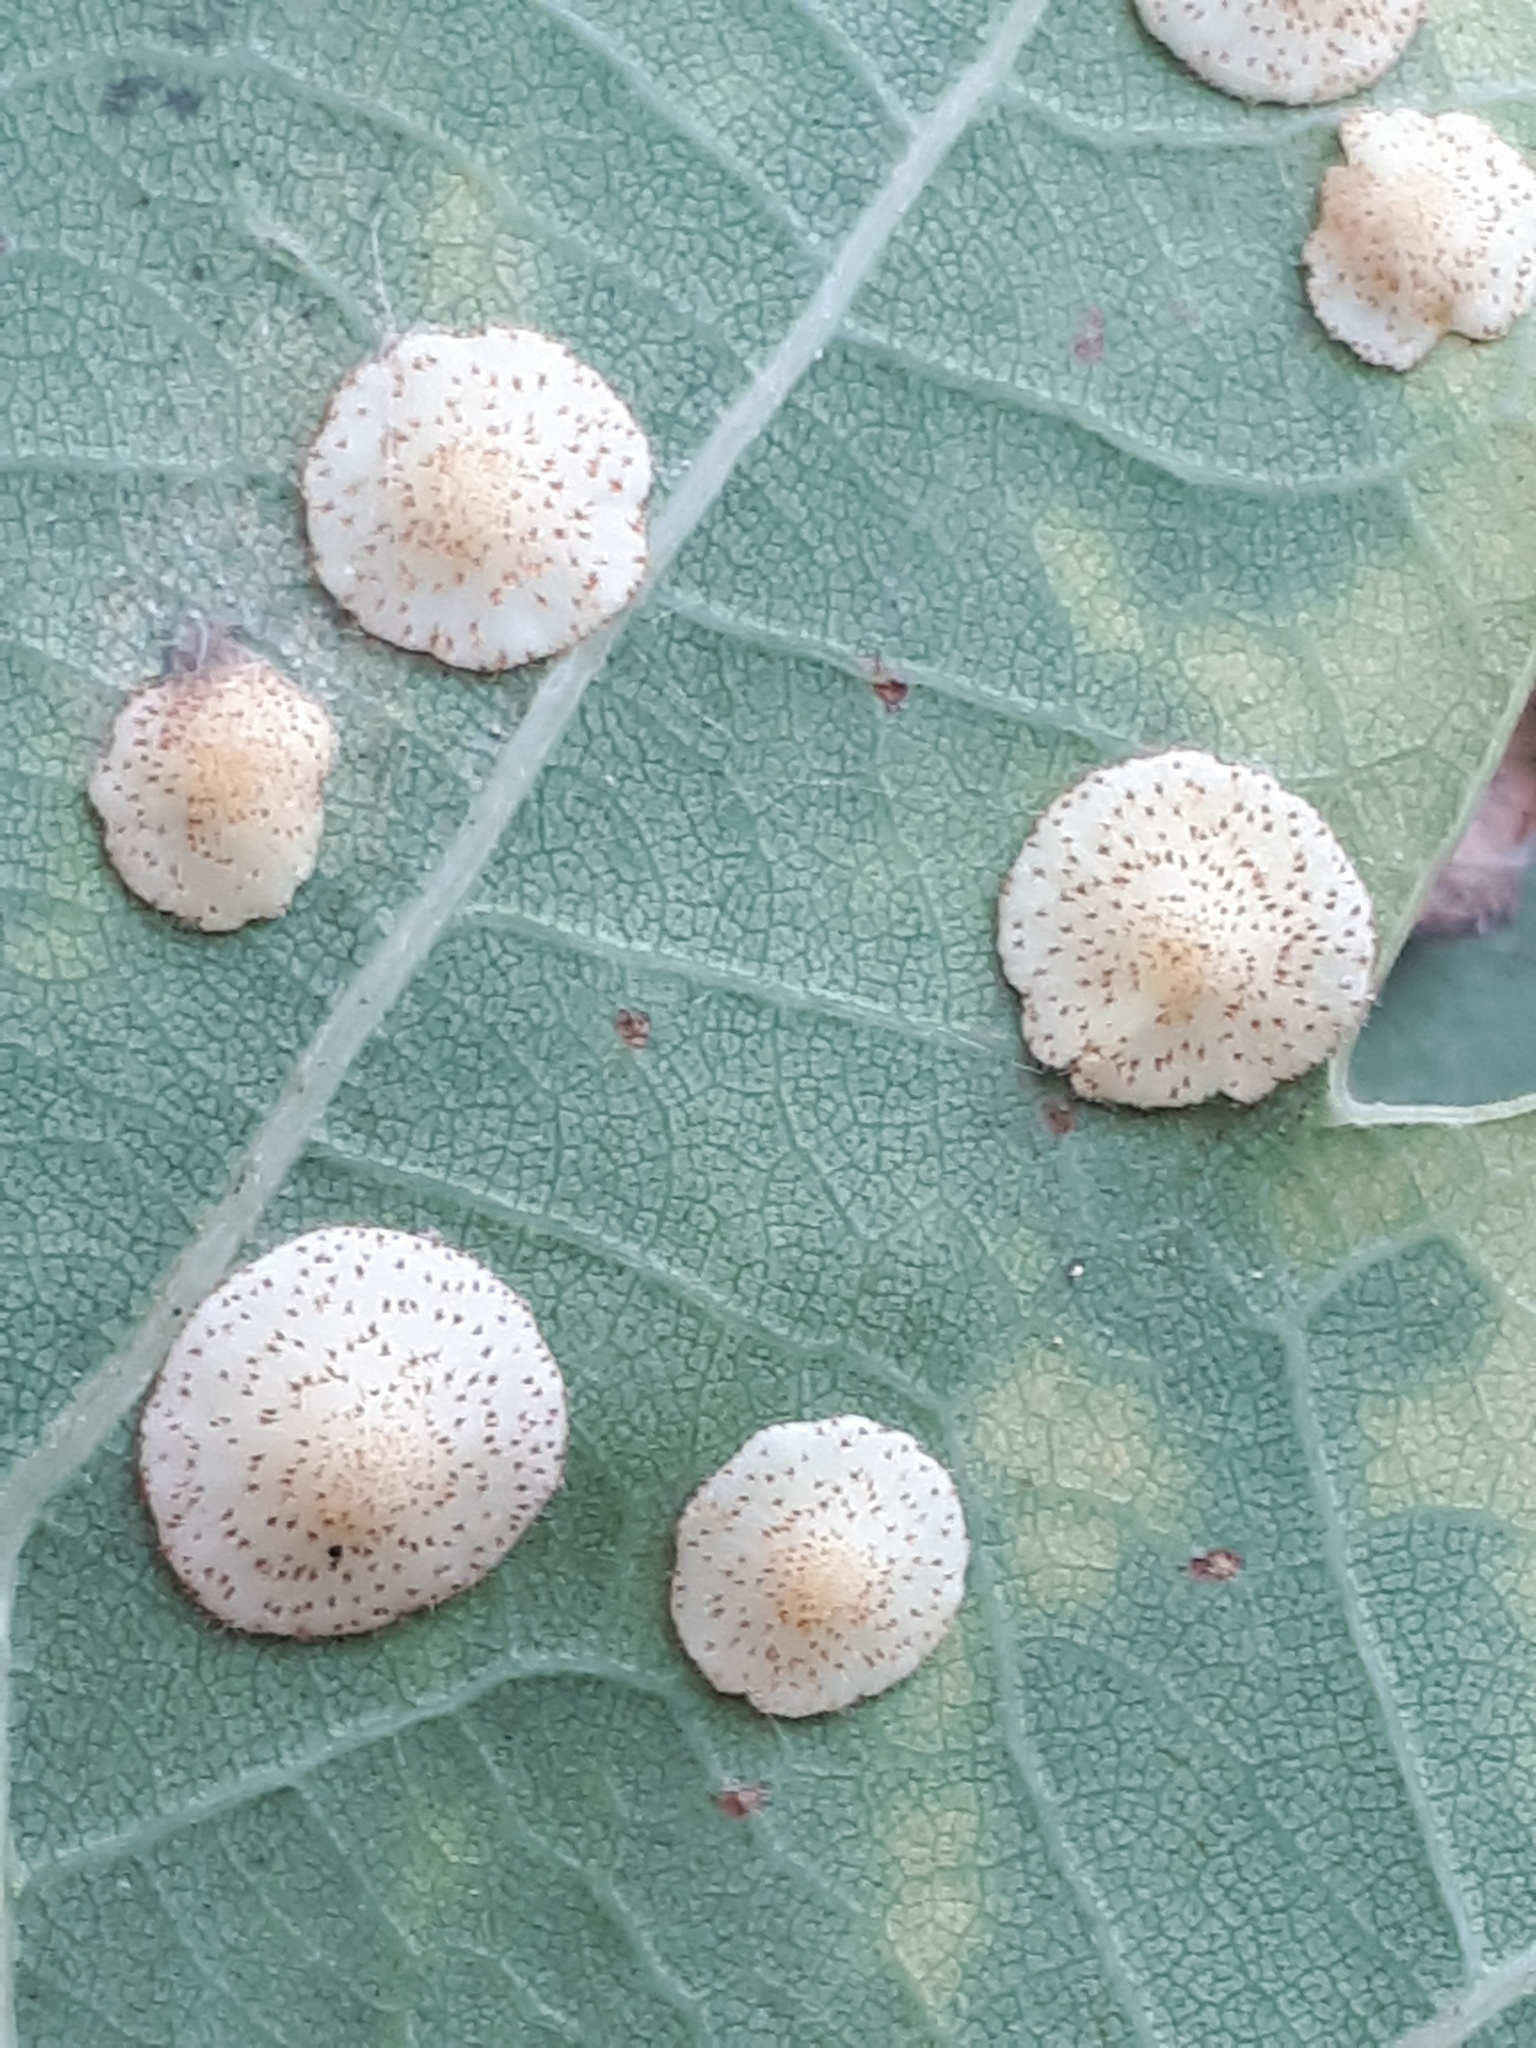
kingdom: Animalia
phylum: Arthropoda
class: Insecta
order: Hymenoptera
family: Cynipidae
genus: Neuroterus
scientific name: Neuroterus quercusbaccarum
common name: Common spangle gall
